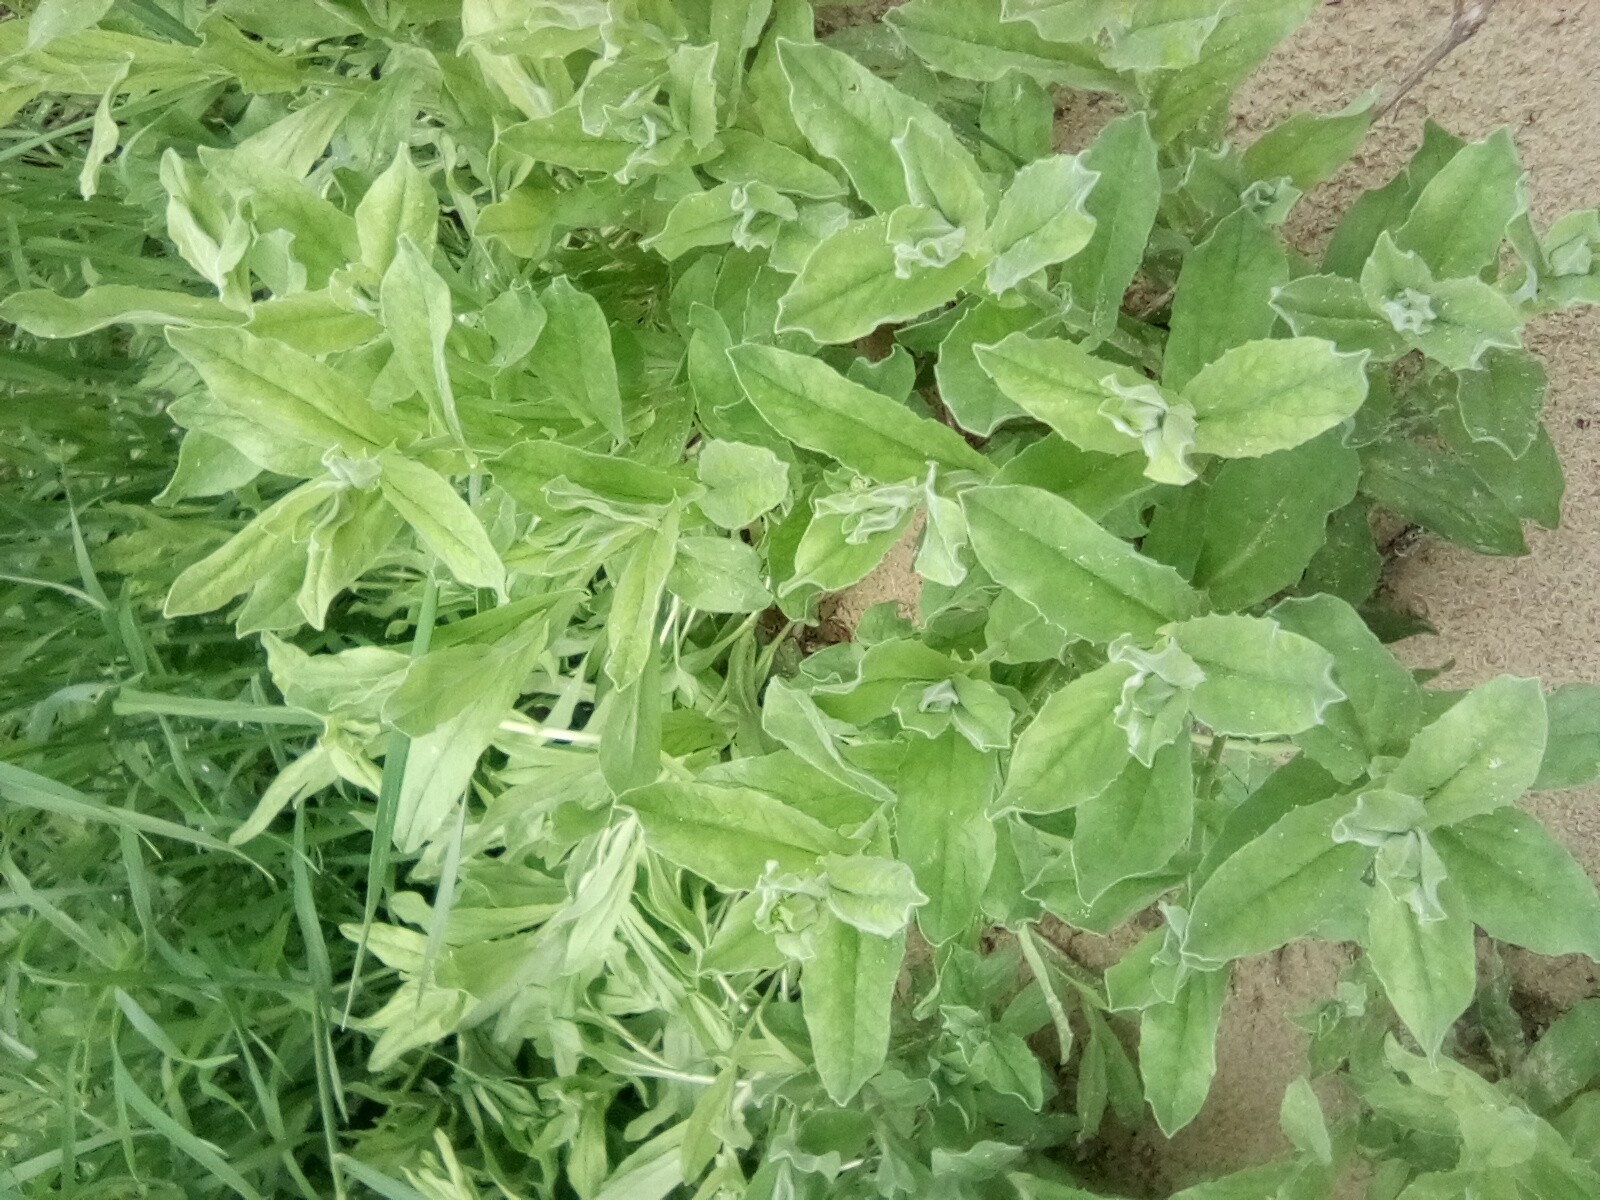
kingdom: Plantae
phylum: Tracheophyta
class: Magnoliopsida
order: Brassicales
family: Brassicaceae
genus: Lepidium
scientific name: Lepidium draba
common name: Hoary cress
